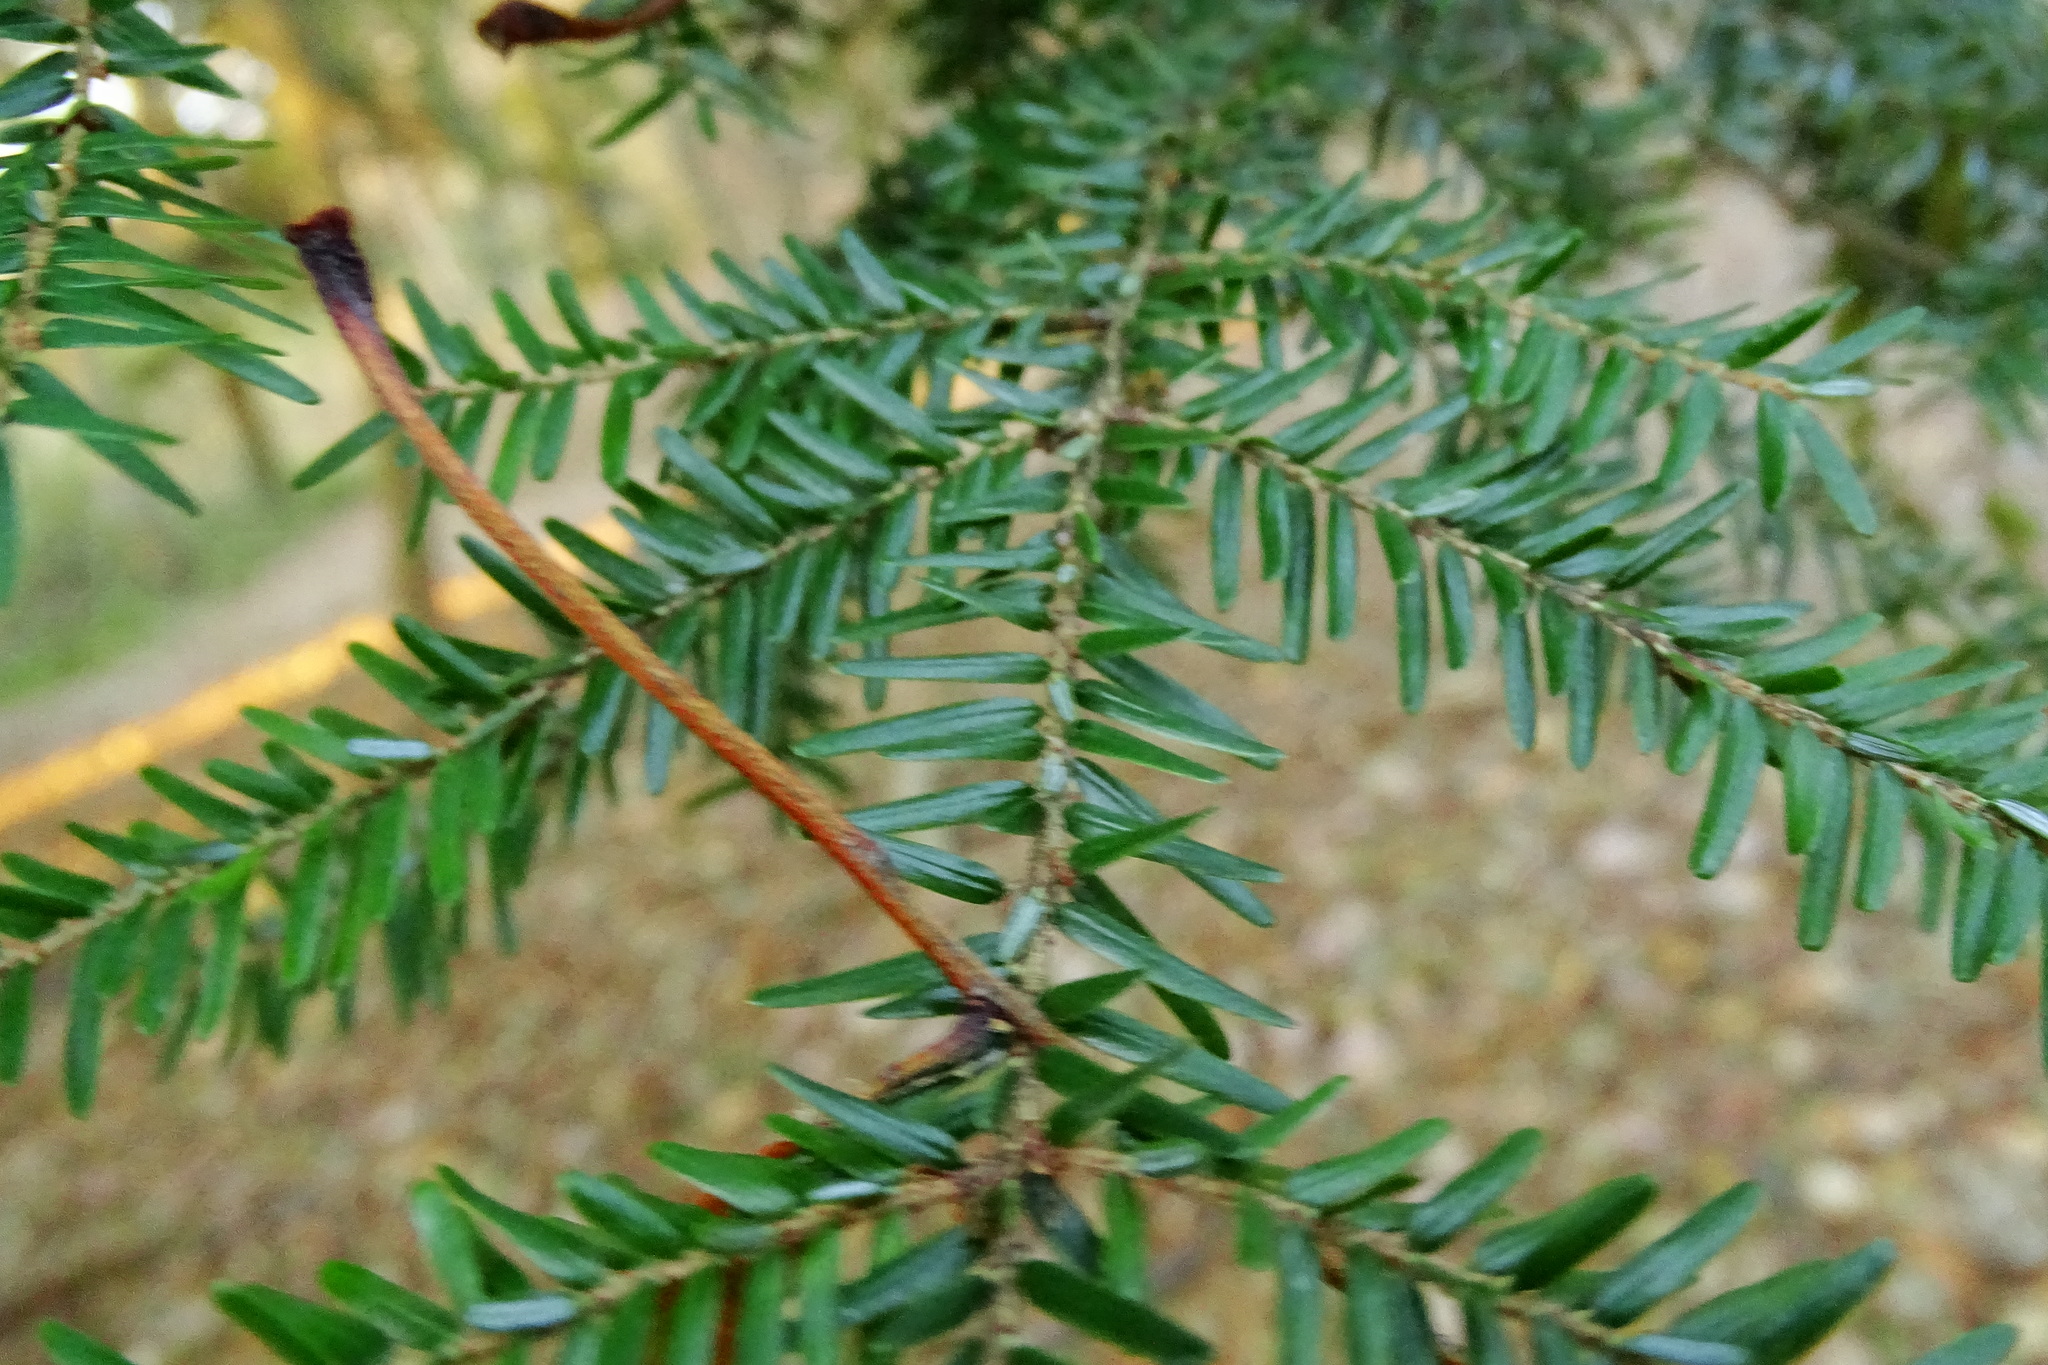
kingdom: Plantae
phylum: Tracheophyta
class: Pinopsida
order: Pinales
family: Pinaceae
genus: Tsuga
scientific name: Tsuga canadensis
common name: Eastern hemlock
